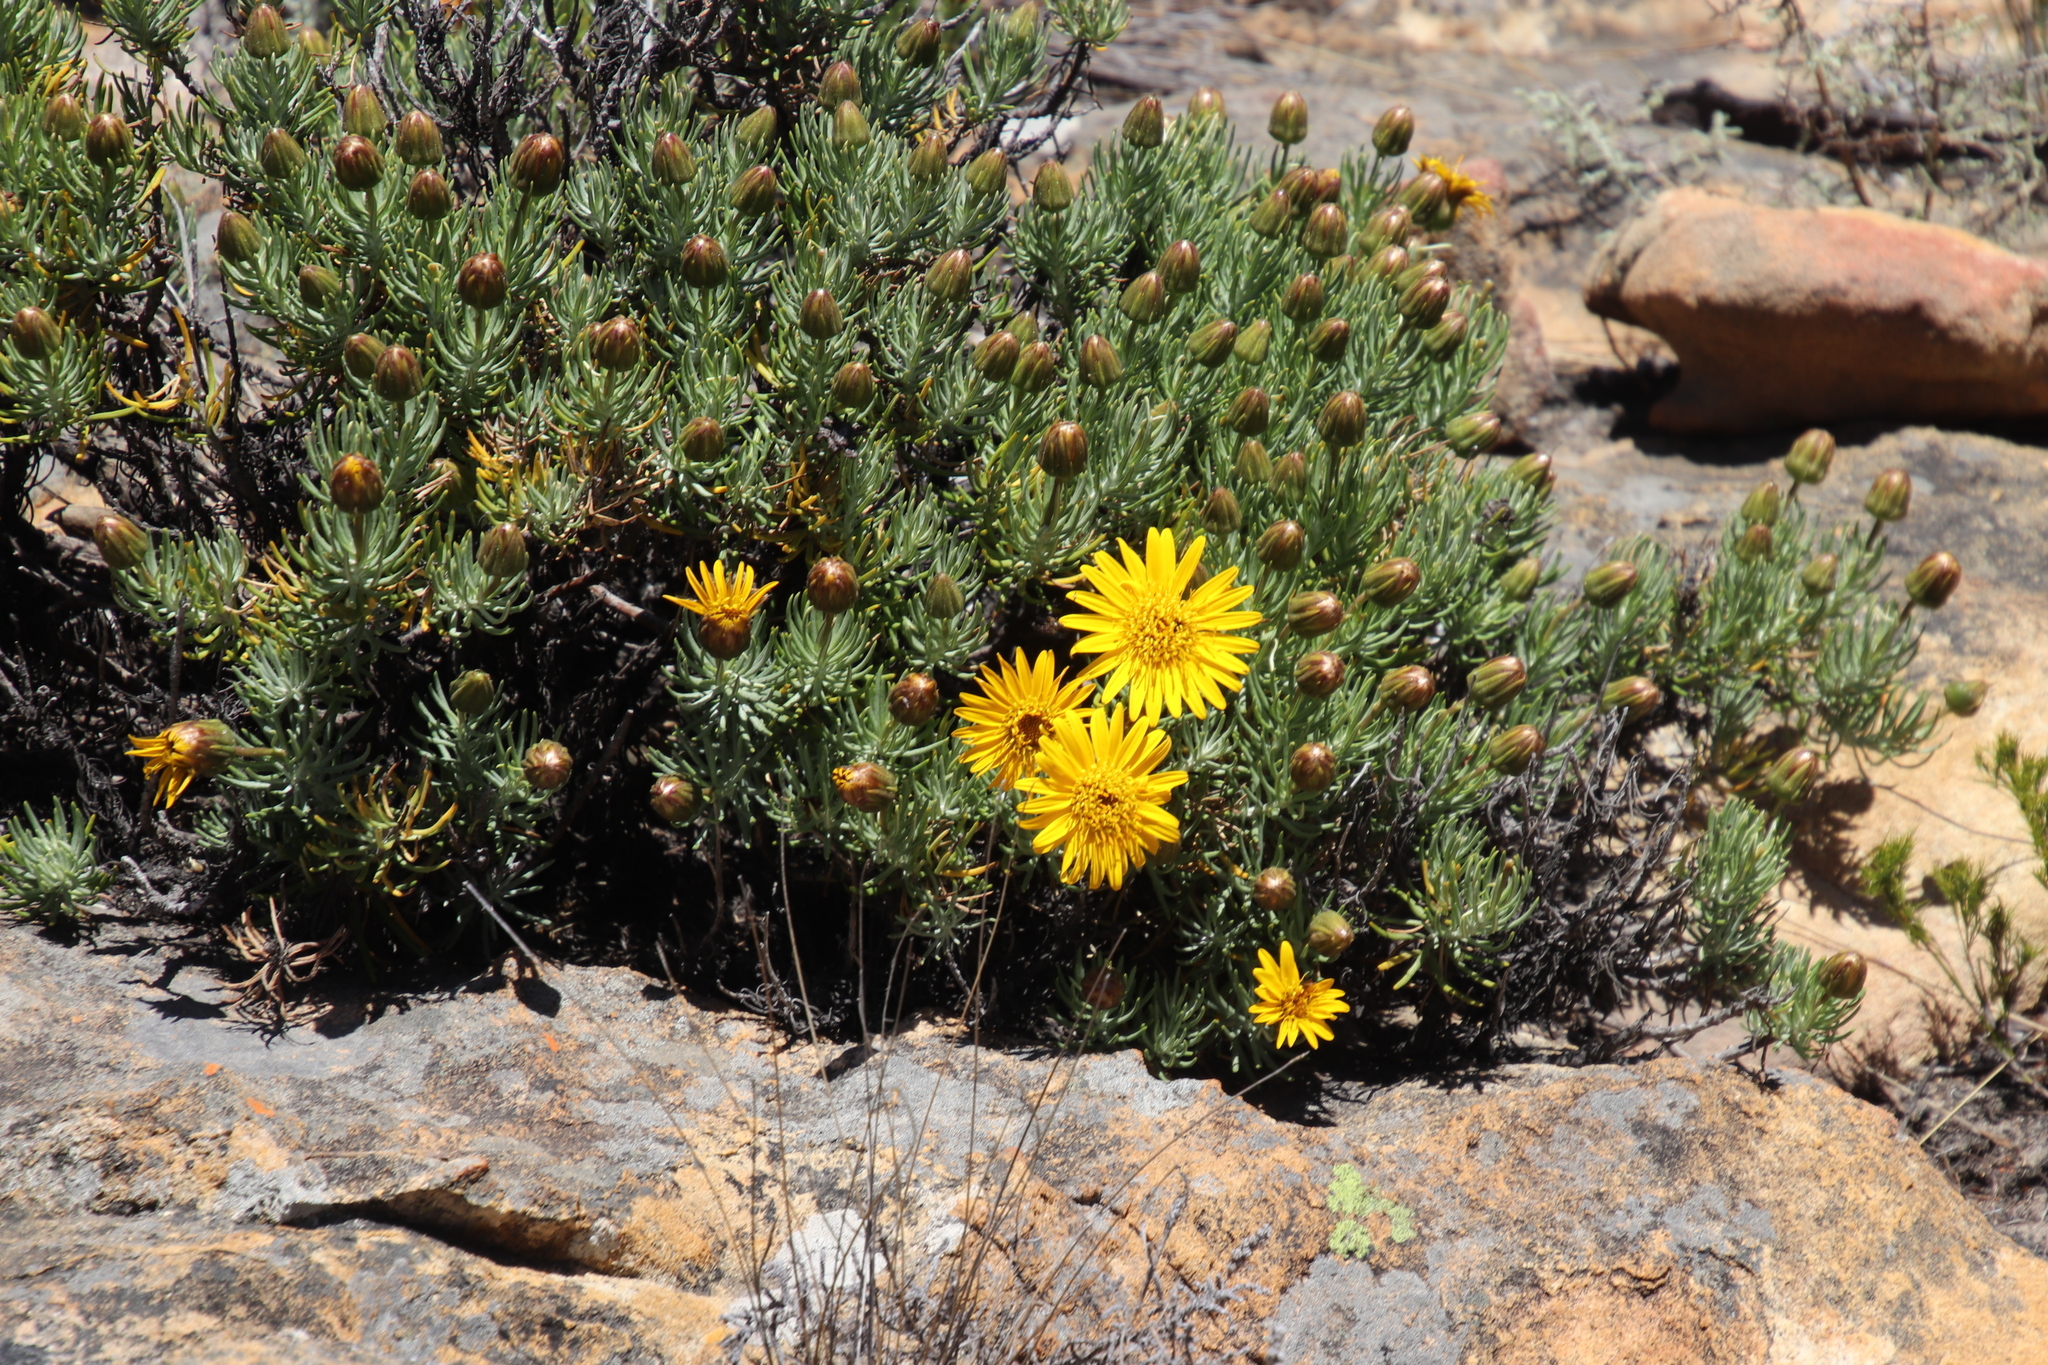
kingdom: Plantae
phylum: Tracheophyta
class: Magnoliopsida
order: Asterales
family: Asteraceae
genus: Heterolepis
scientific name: Heterolepis aliena
